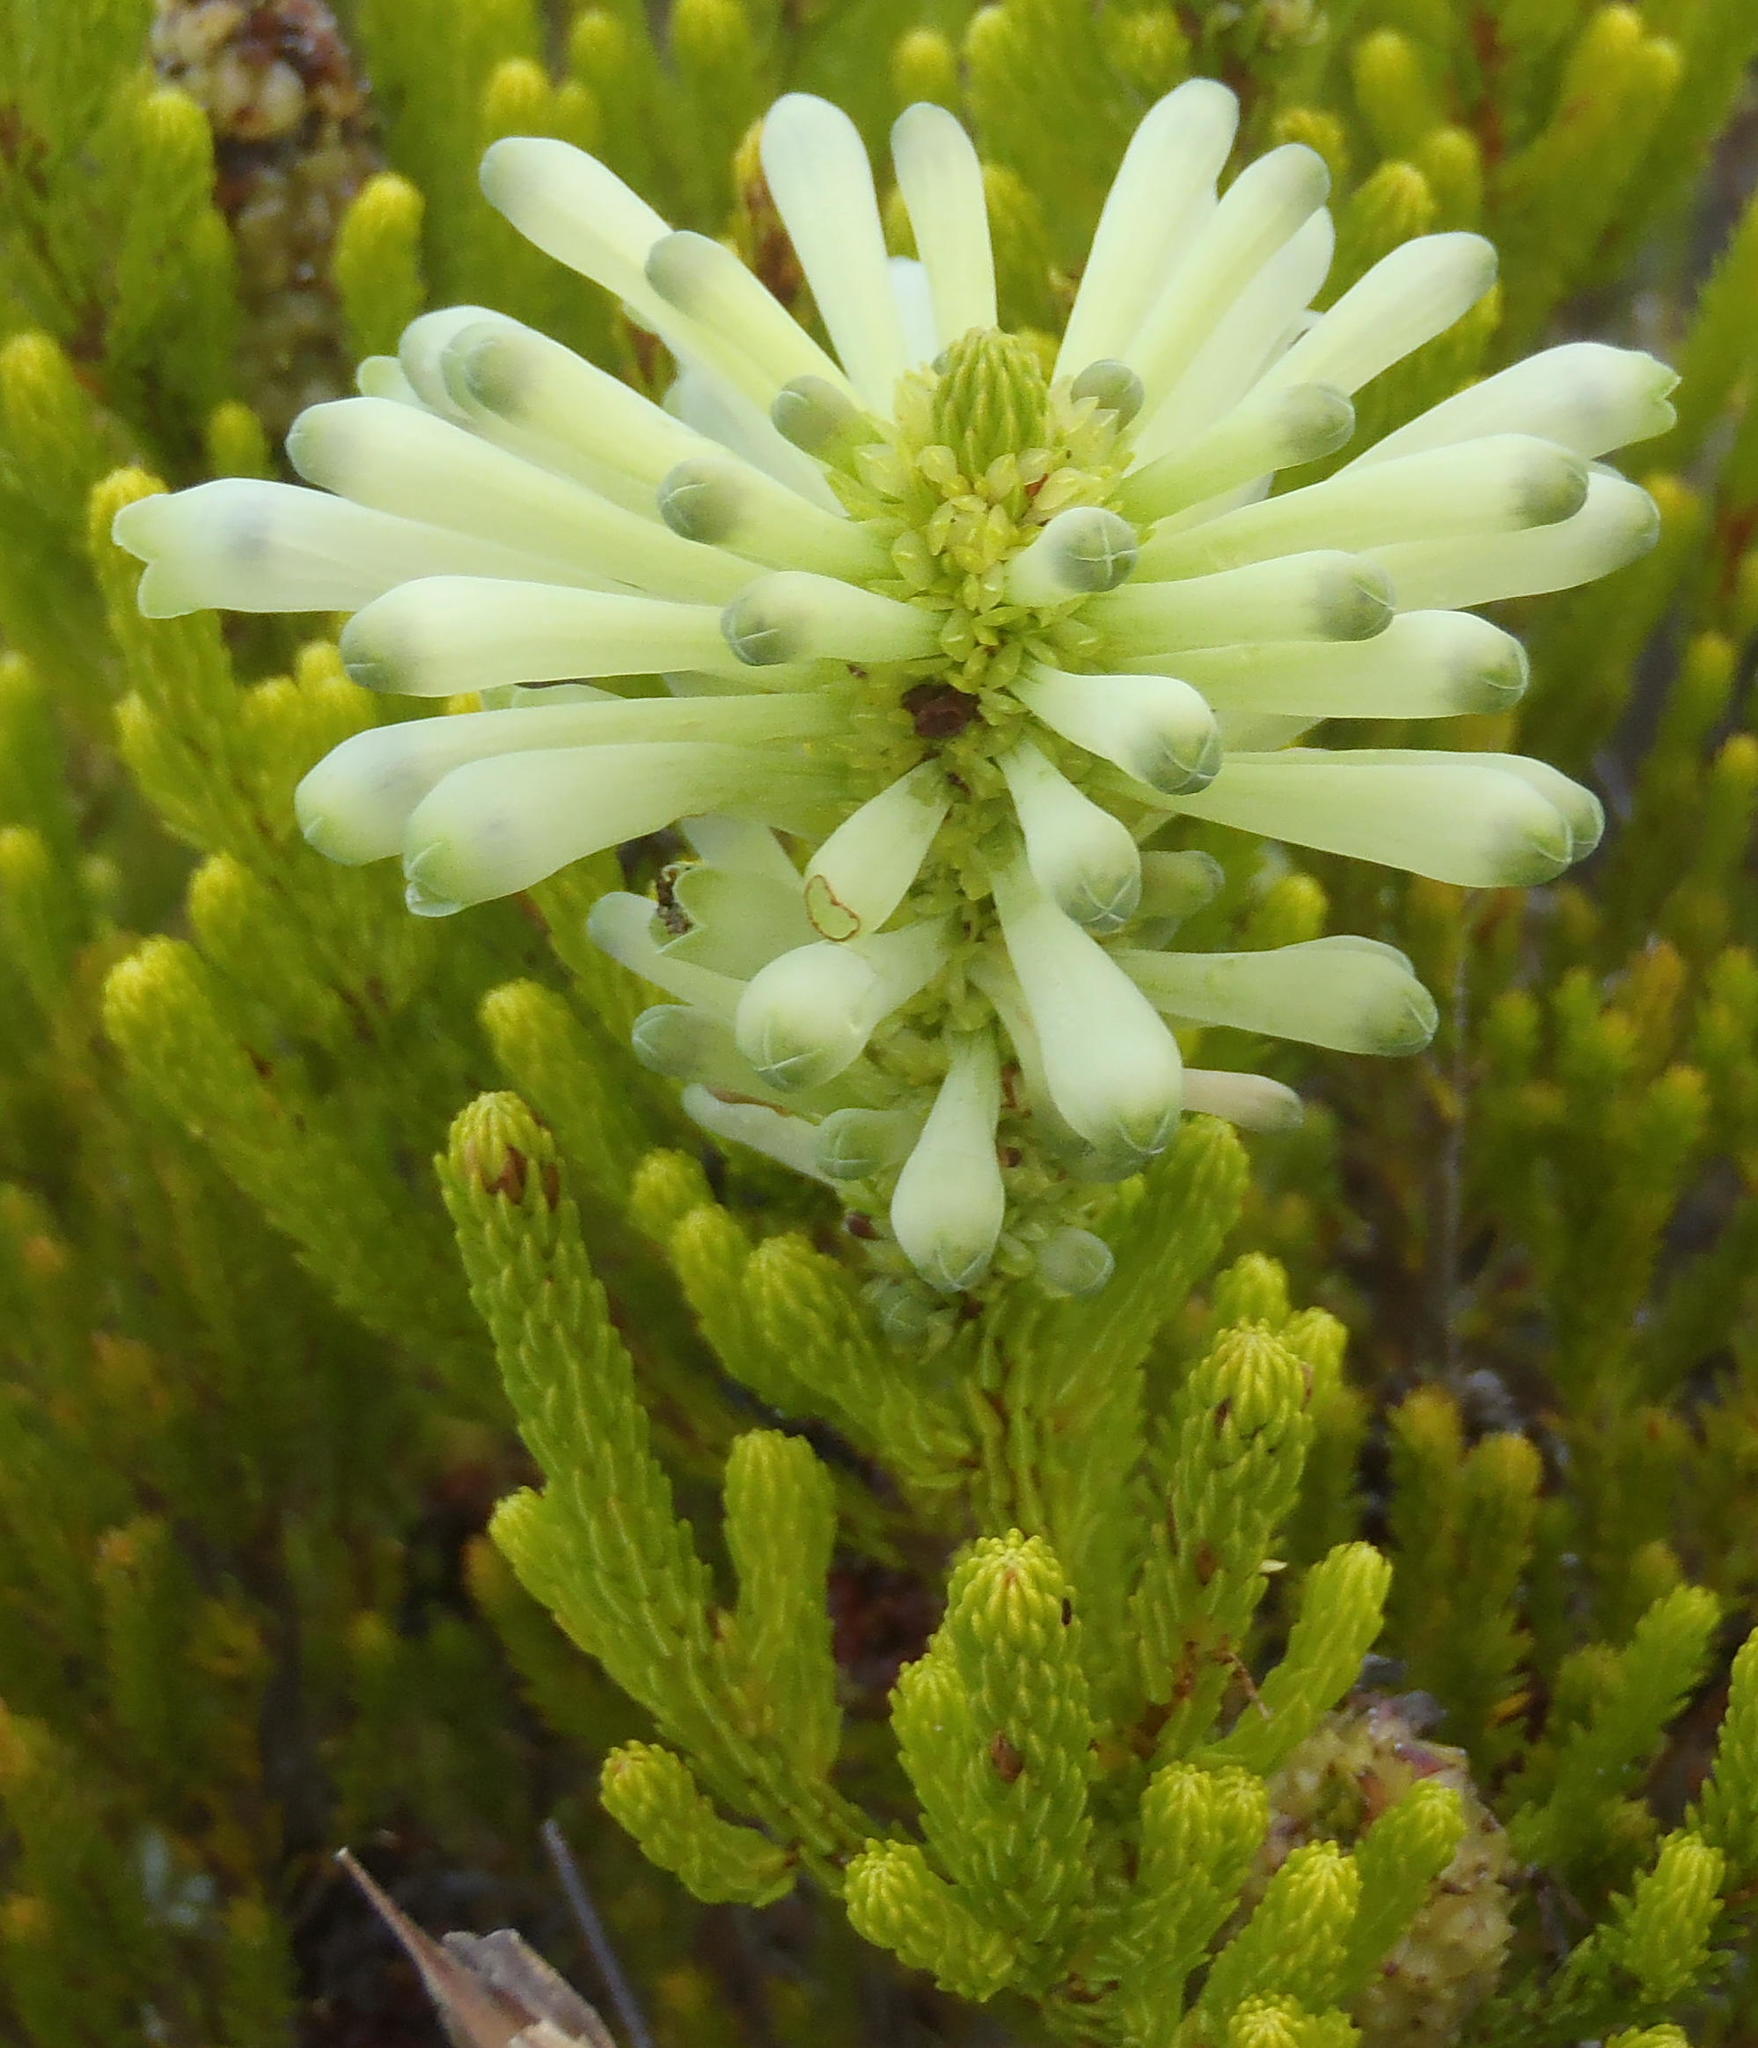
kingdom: Plantae
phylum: Tracheophyta
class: Magnoliopsida
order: Ericales
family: Ericaceae
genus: Erica
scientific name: Erica sessiliflora
